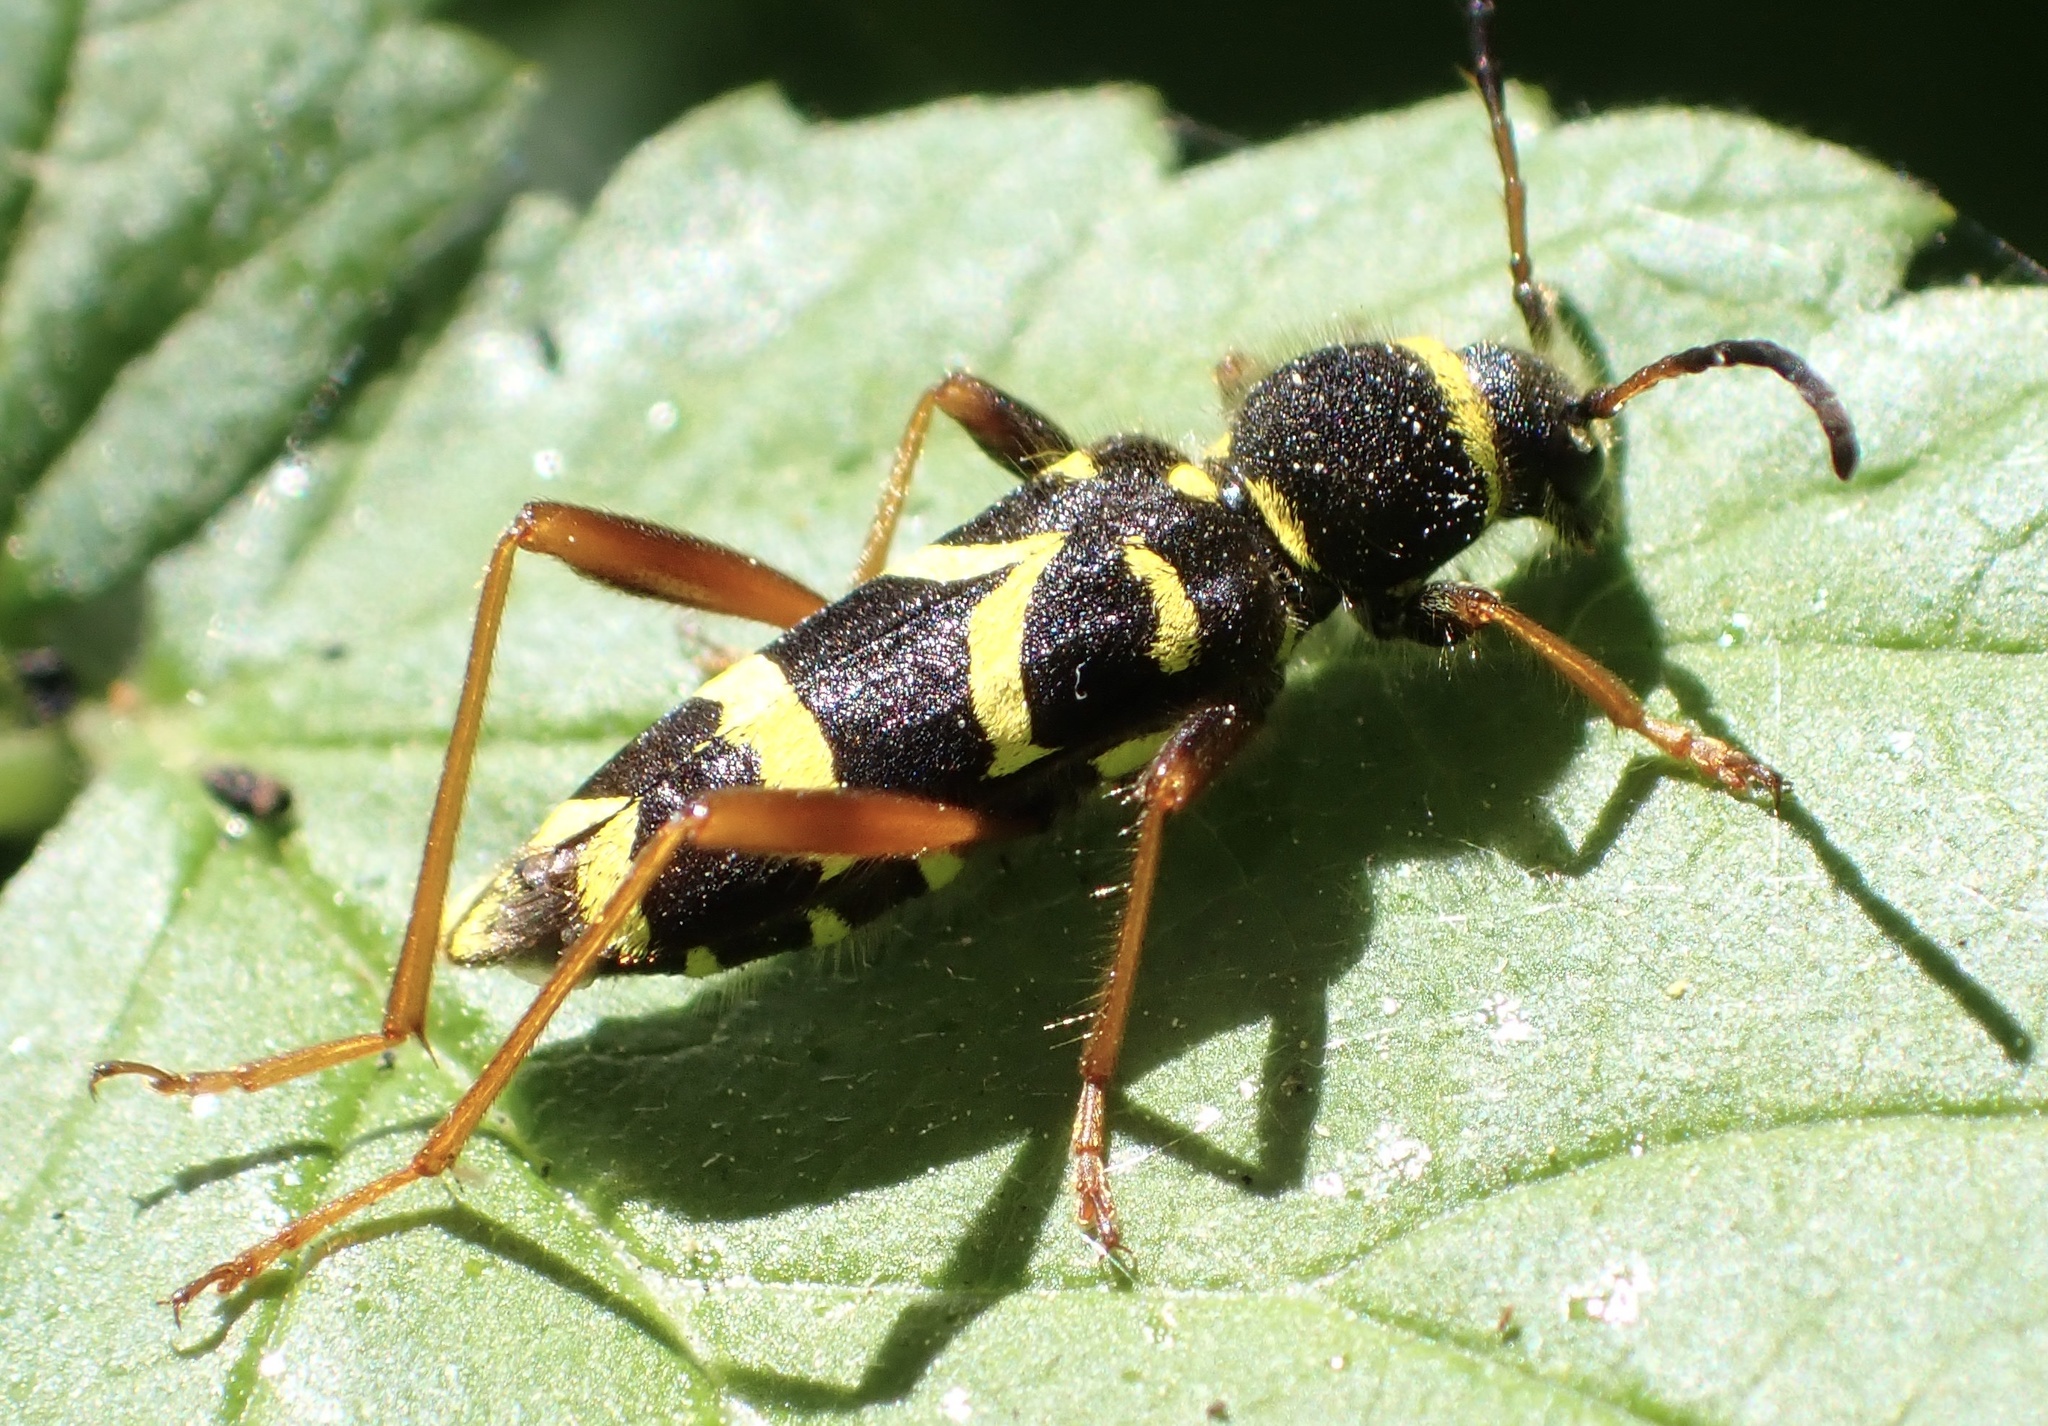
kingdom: Animalia
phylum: Arthropoda
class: Insecta
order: Coleoptera
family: Cerambycidae
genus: Clytus
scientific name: Clytus arietis
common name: Wasp beetle
